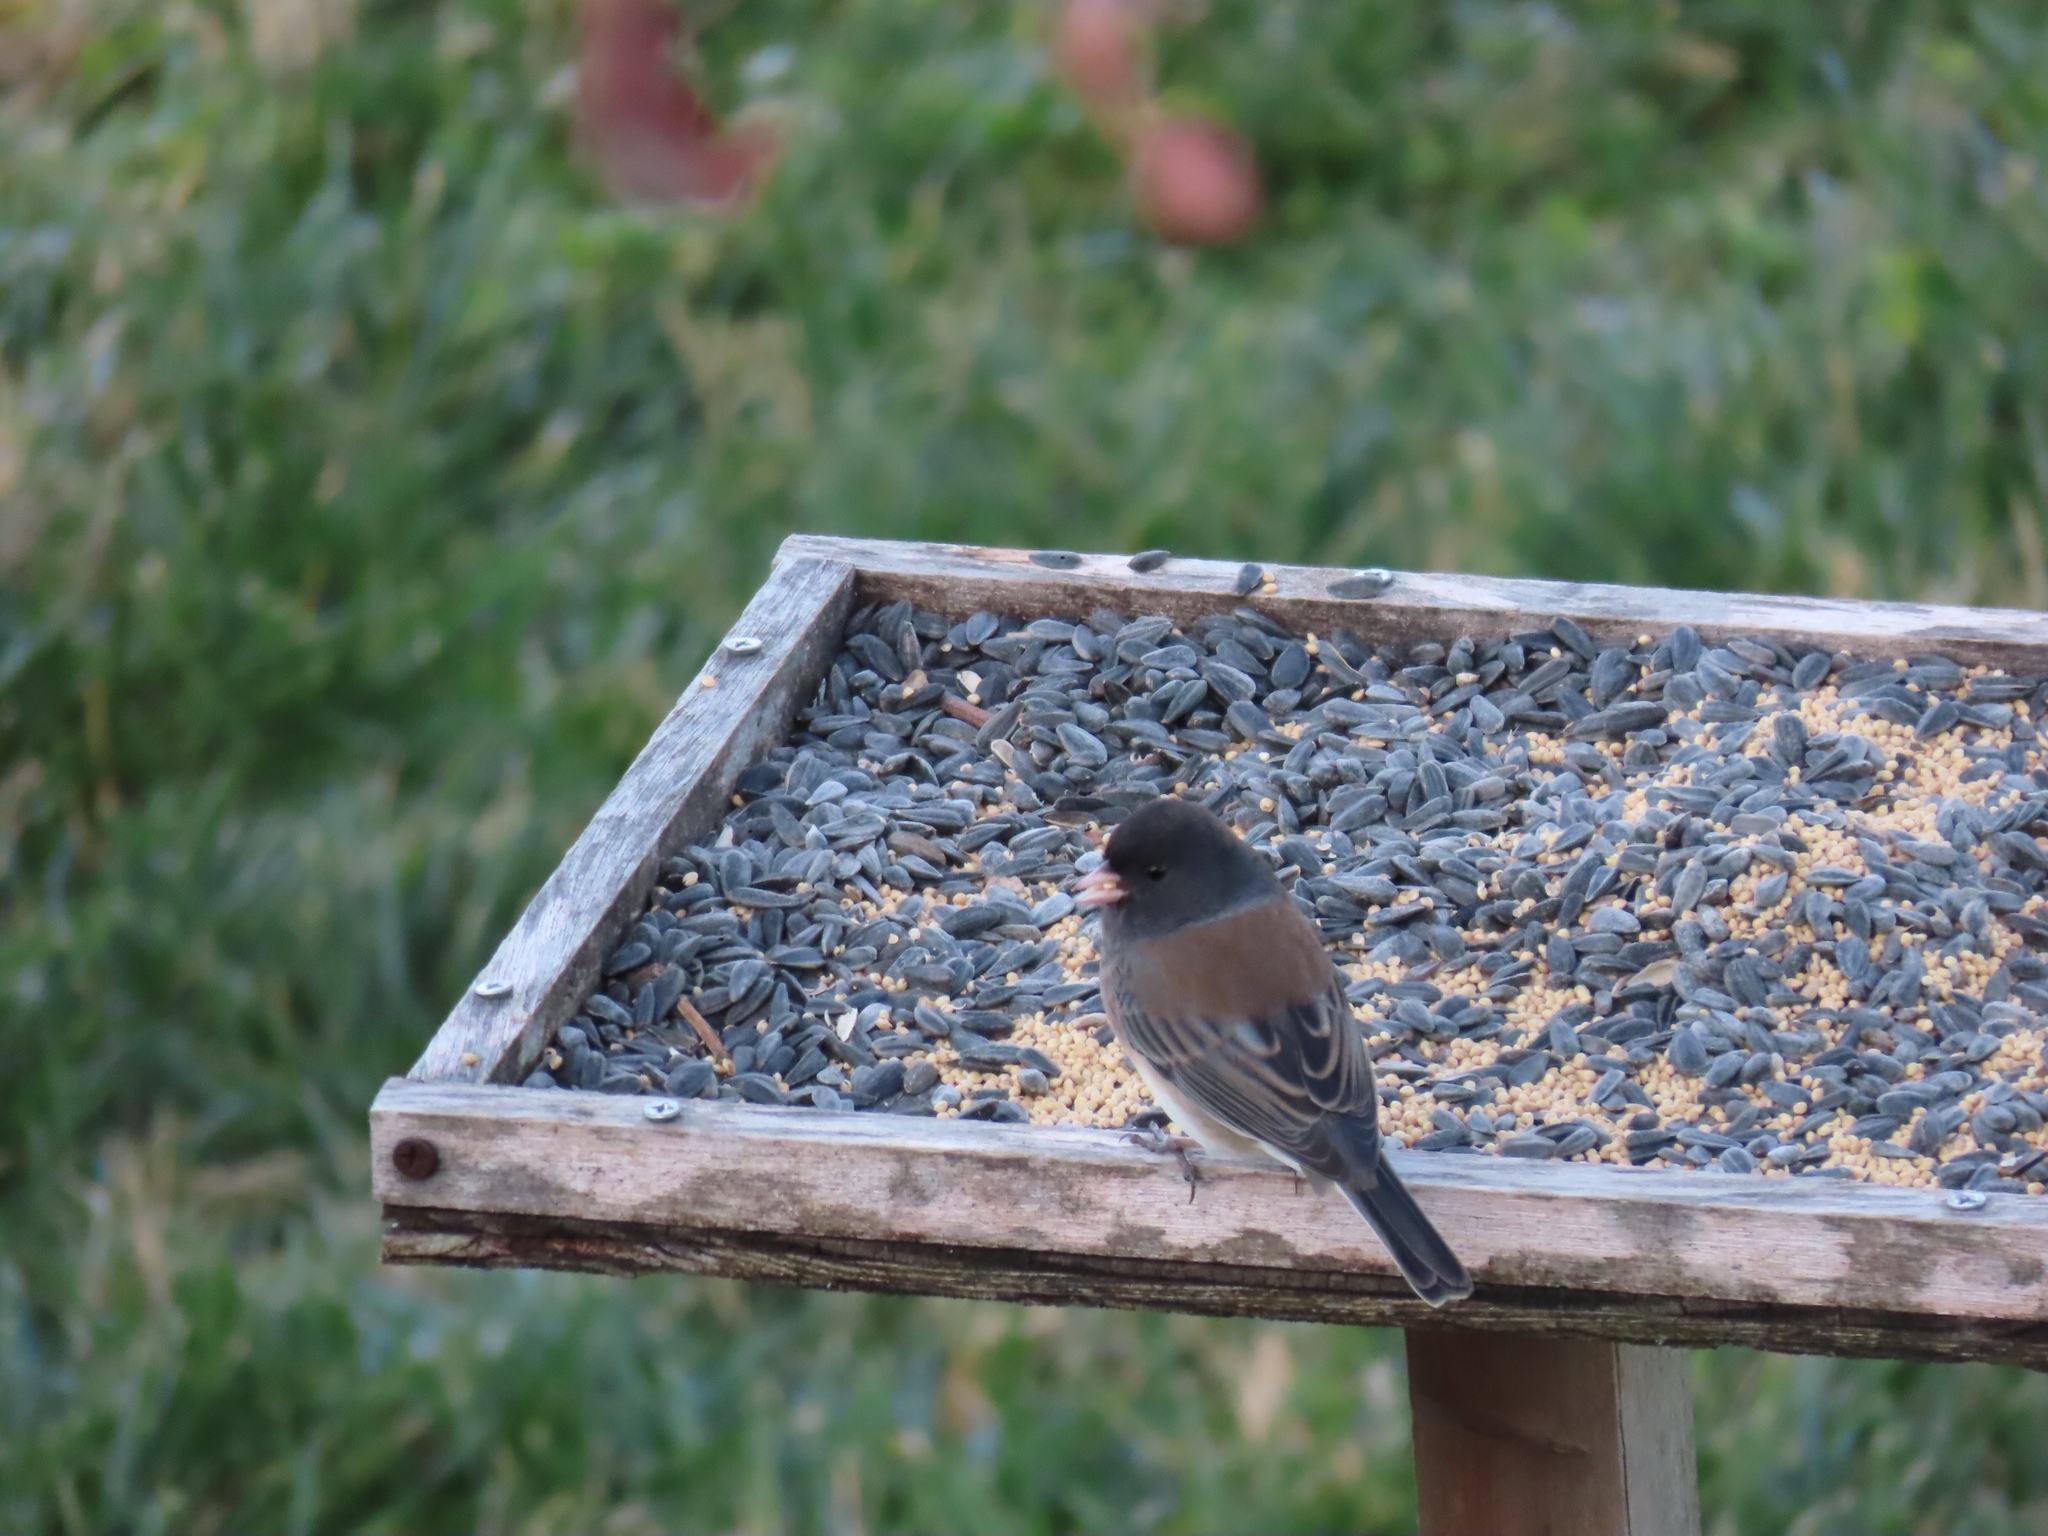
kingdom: Animalia
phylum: Chordata
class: Aves
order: Passeriformes
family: Passerellidae
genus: Junco
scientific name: Junco hyemalis
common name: Dark-eyed junco
